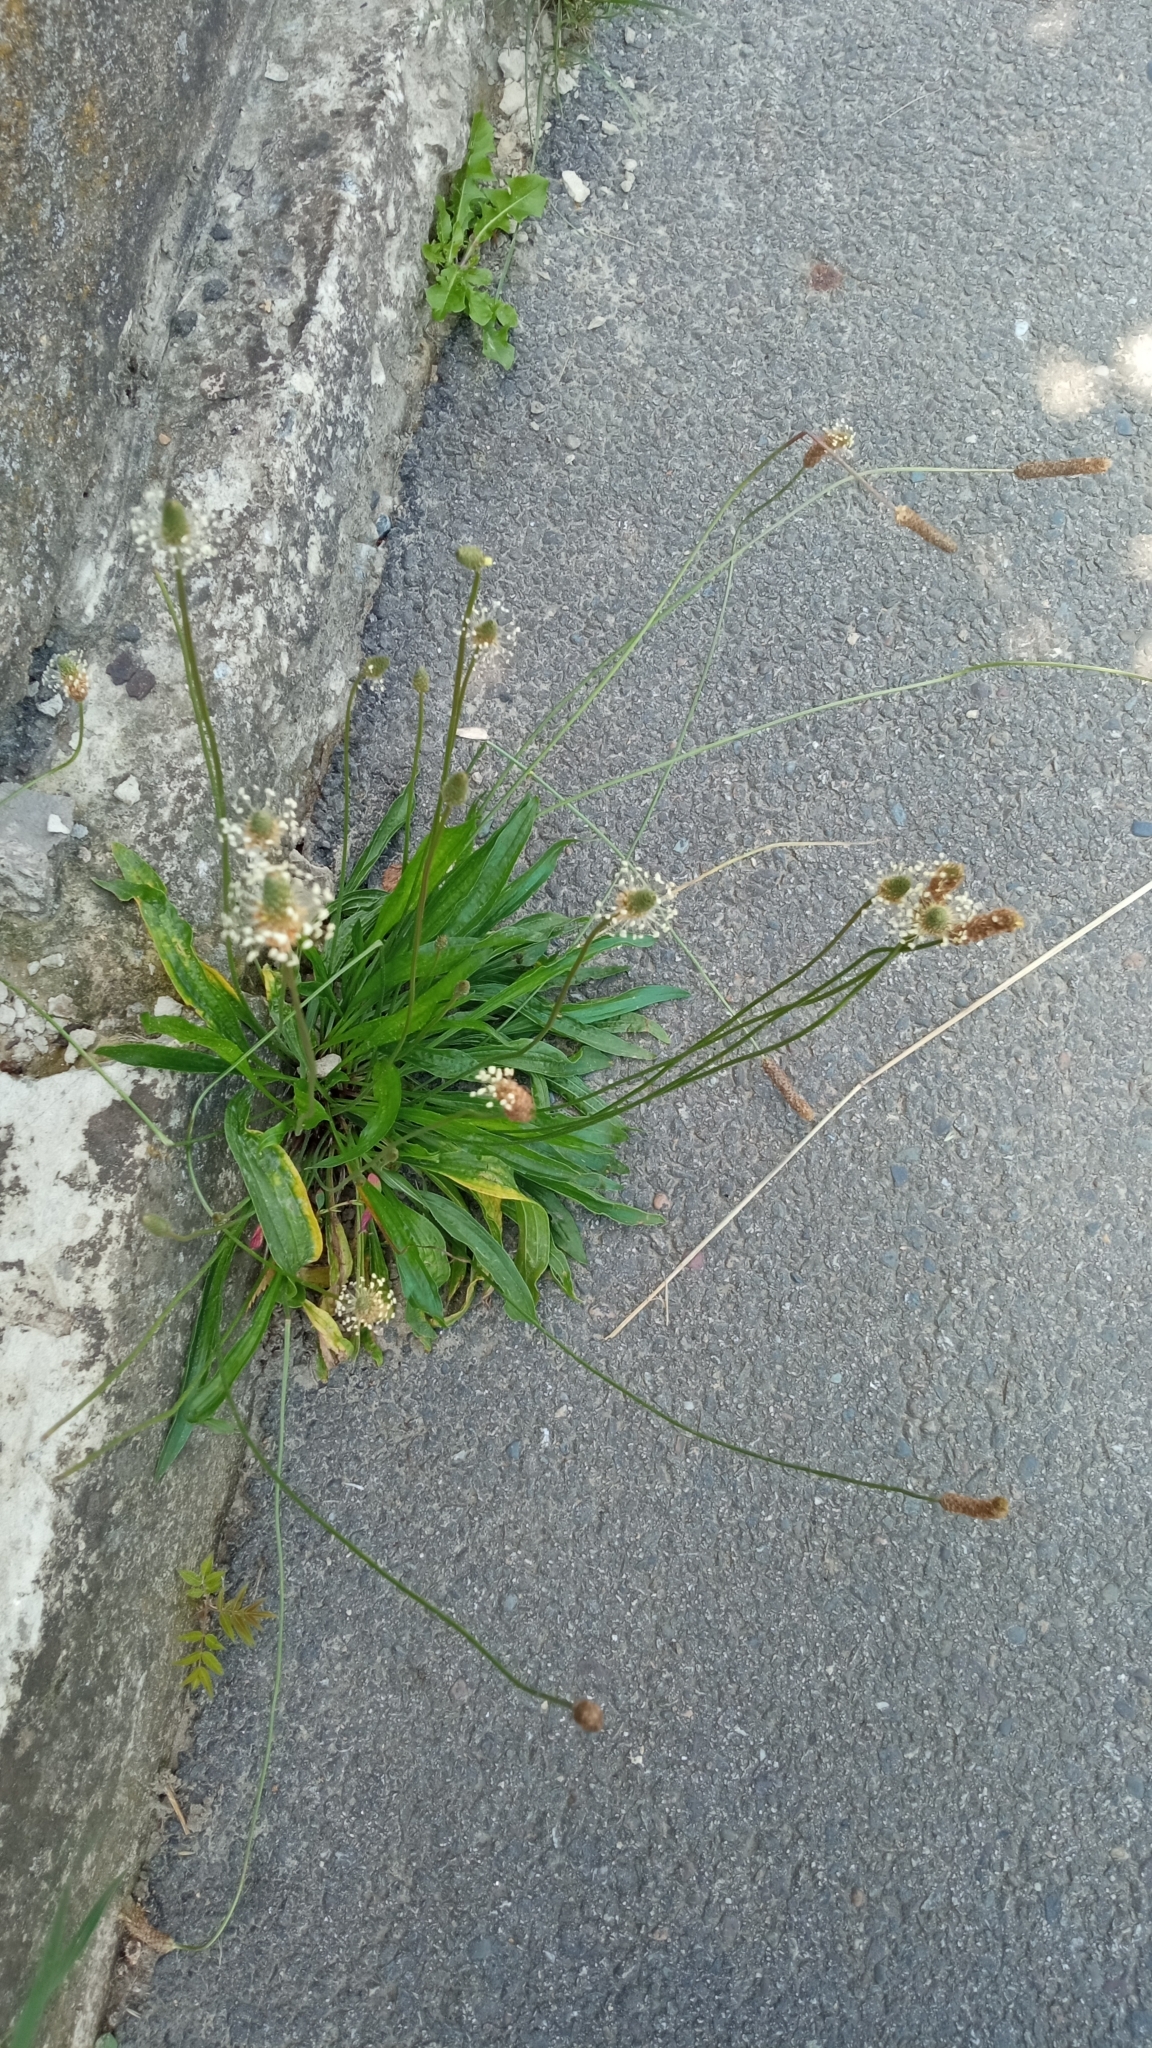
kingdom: Plantae
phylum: Tracheophyta
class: Magnoliopsida
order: Lamiales
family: Plantaginaceae
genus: Plantago
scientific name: Plantago lanceolata
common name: Ribwort plantain
